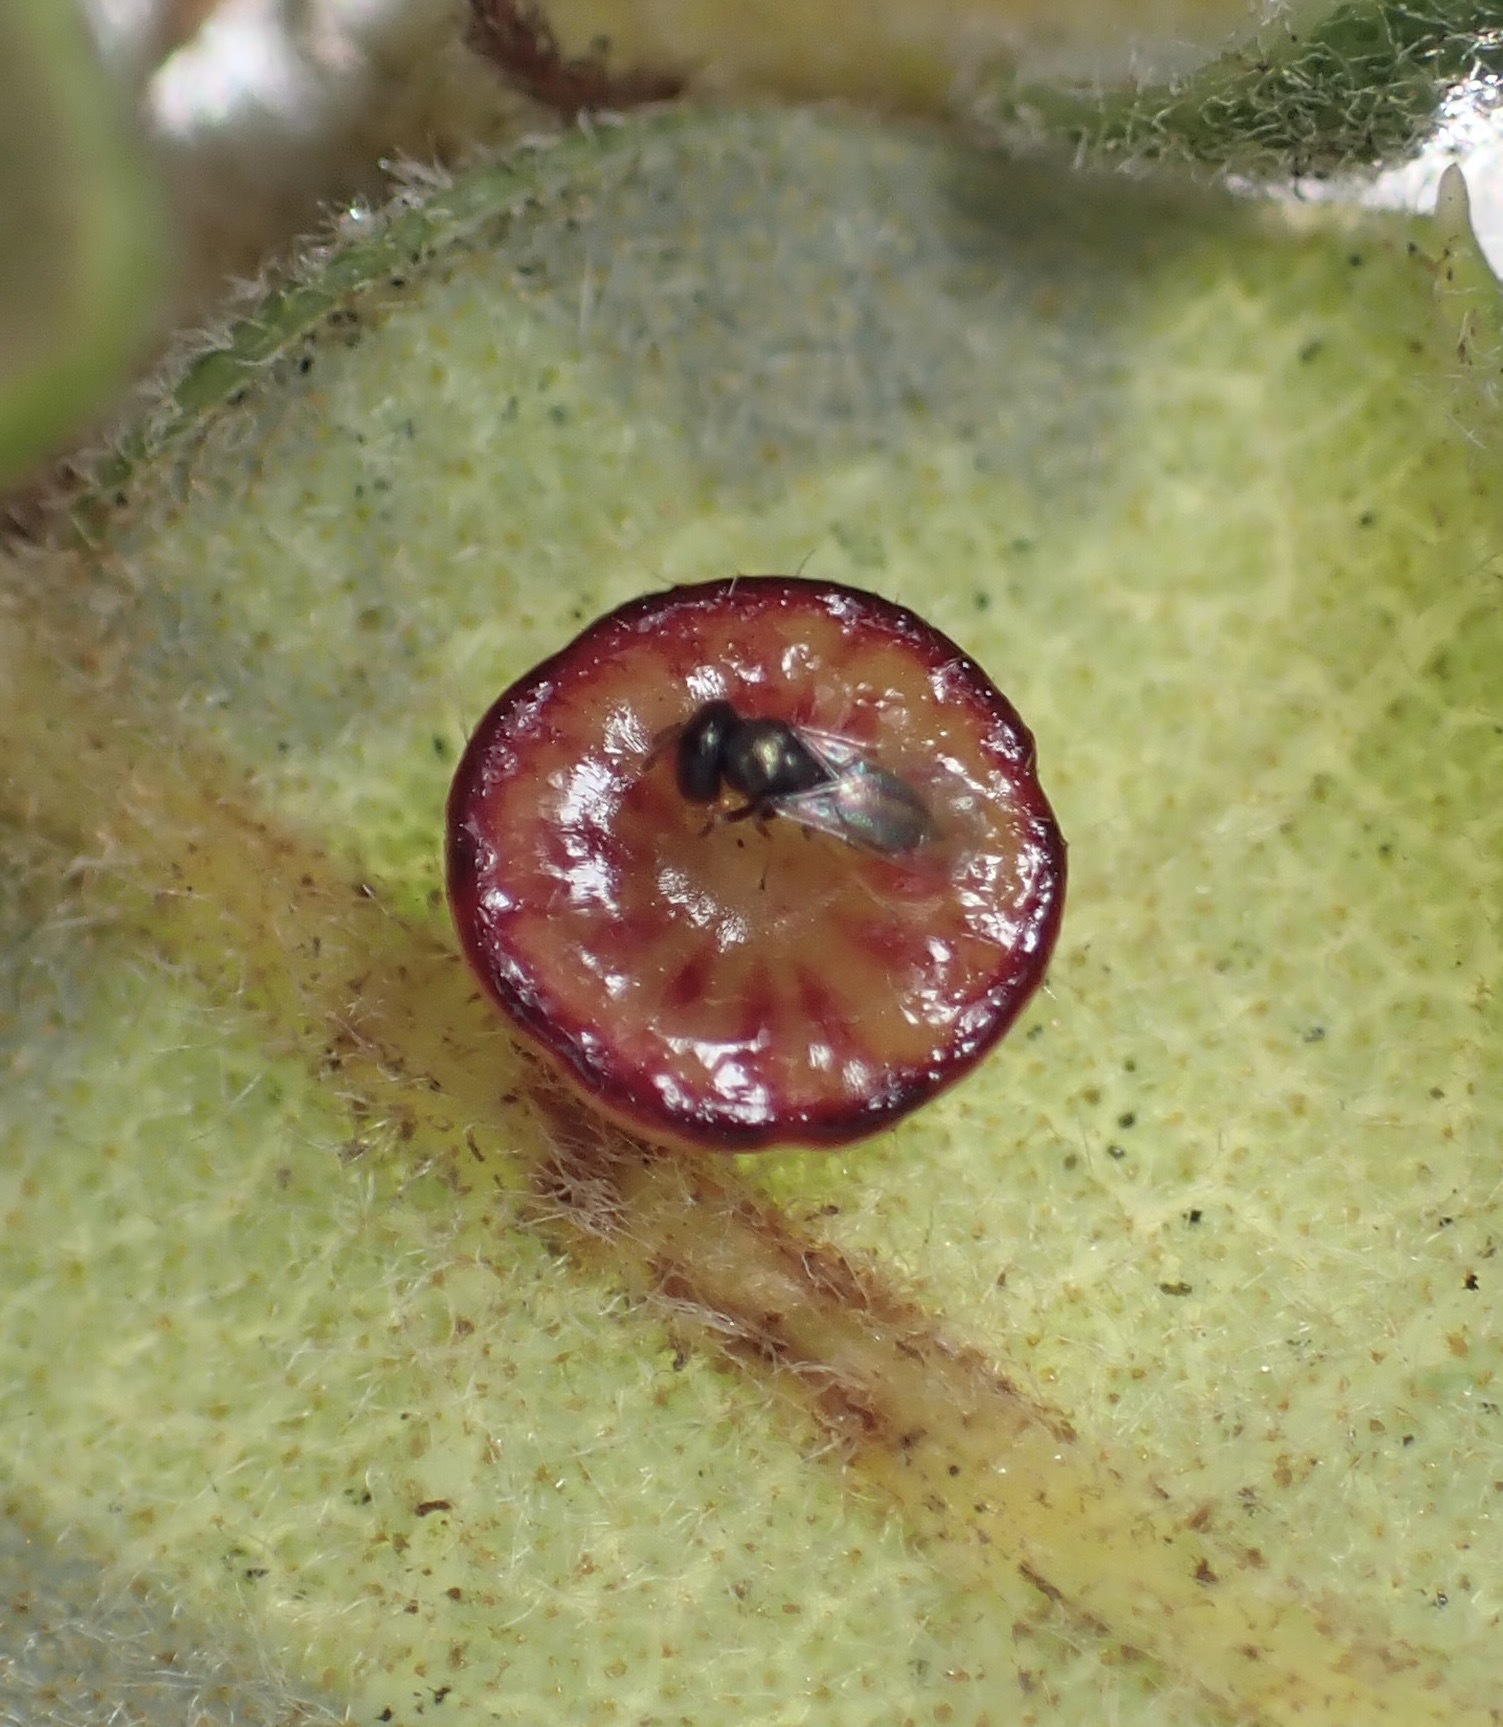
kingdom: Animalia
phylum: Arthropoda
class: Insecta
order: Hymenoptera
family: Cynipidae
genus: Andricus
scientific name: Andricus
